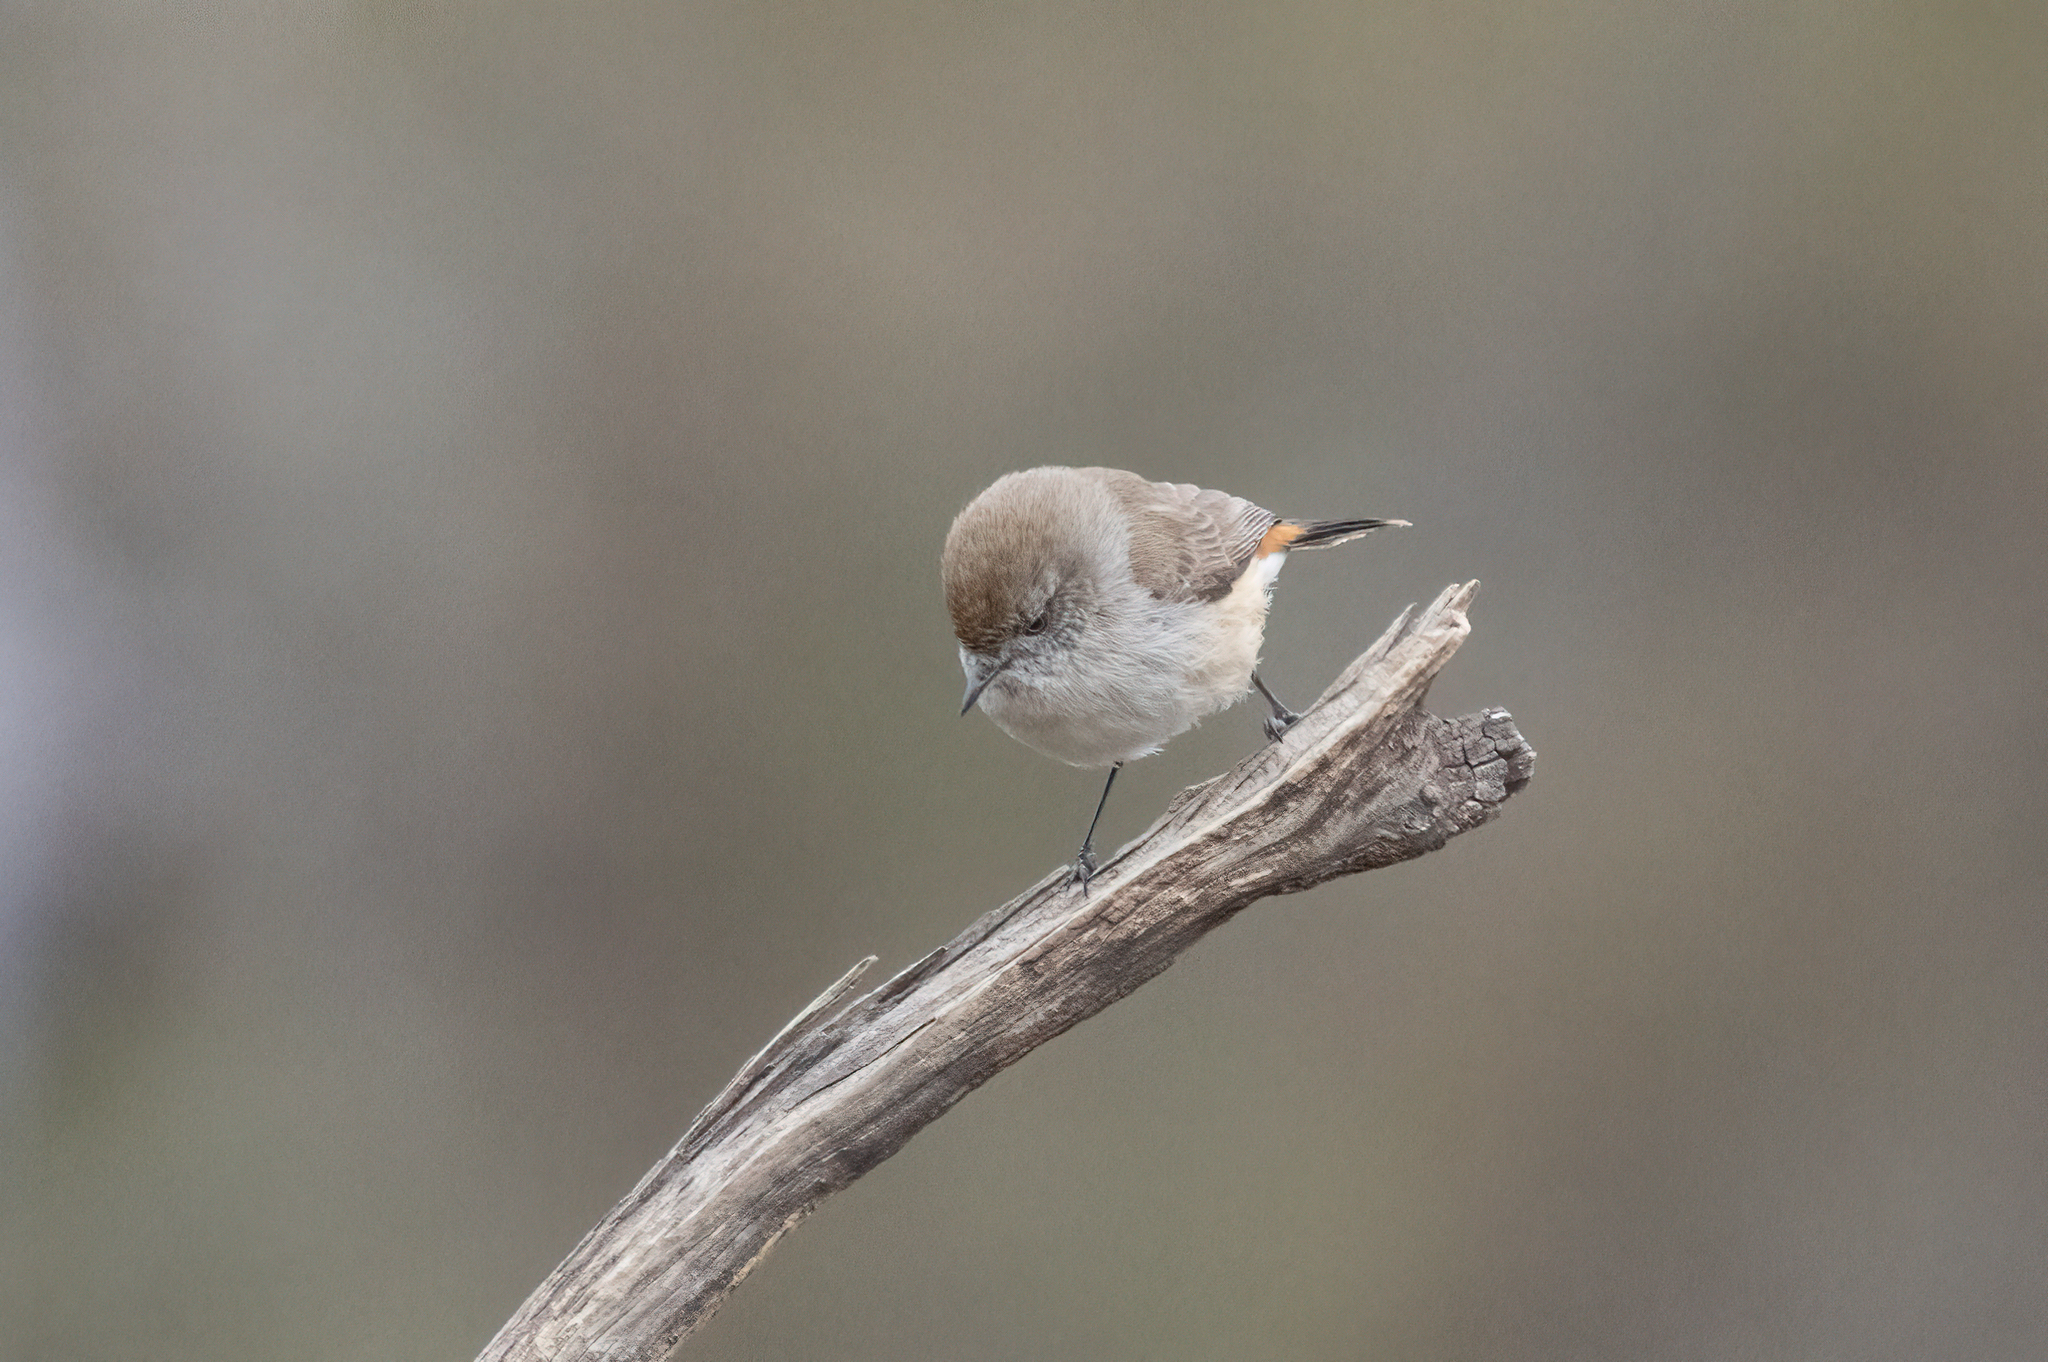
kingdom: Animalia
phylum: Chordata
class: Aves
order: Passeriformes
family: Acanthizidae
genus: Acanthiza
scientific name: Acanthiza uropygialis
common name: Chestnut-rumped thornbill
